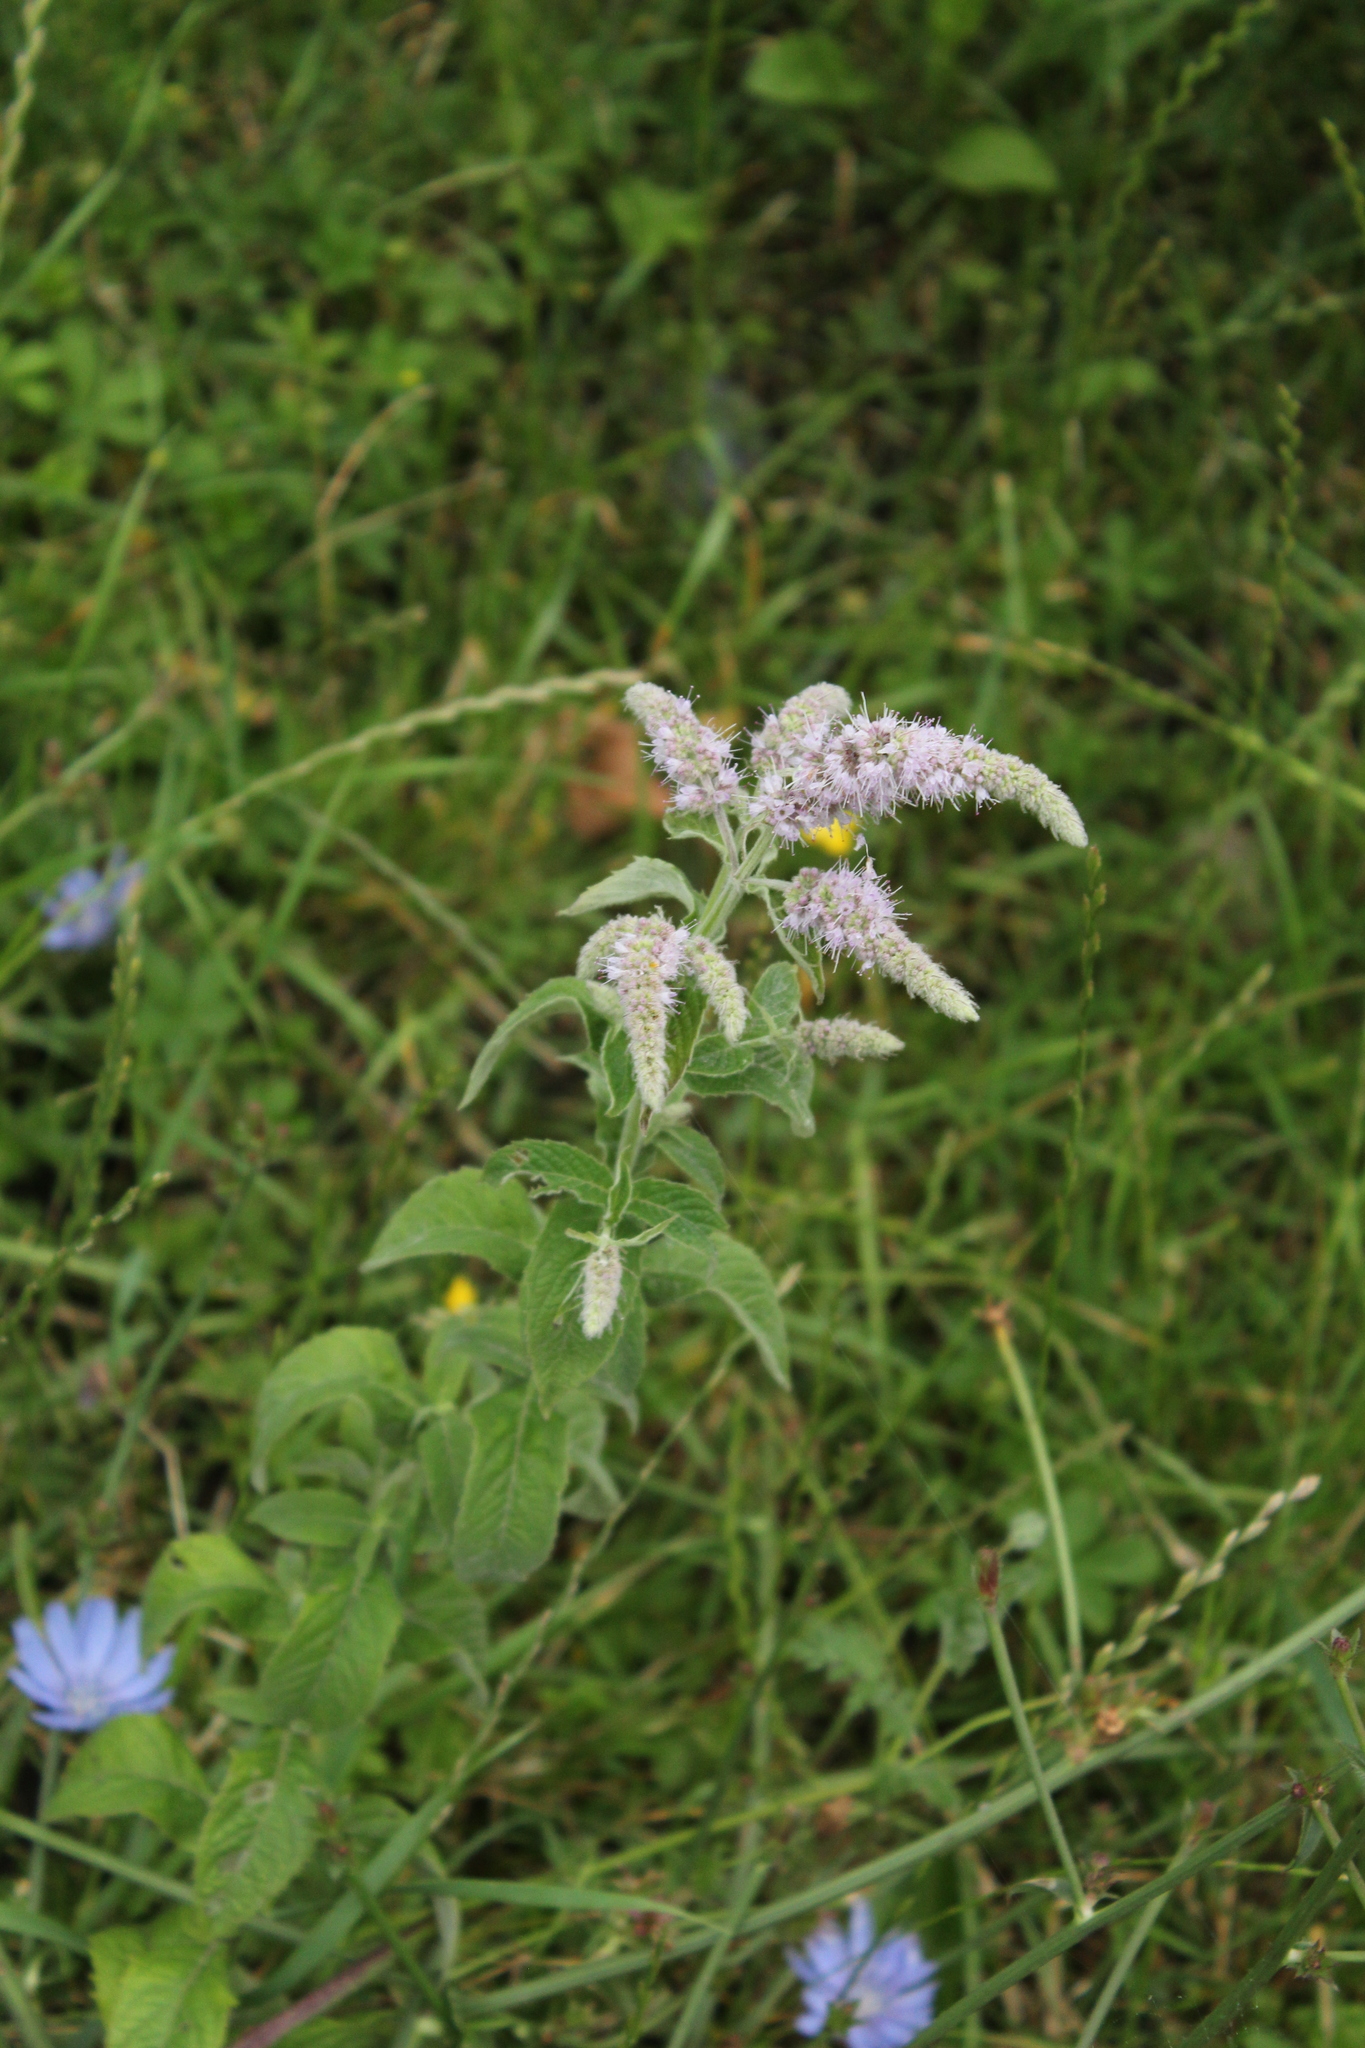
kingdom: Plantae
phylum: Tracheophyta
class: Magnoliopsida
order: Lamiales
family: Lamiaceae
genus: Mentha
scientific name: Mentha longifolia
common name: Horse mint
